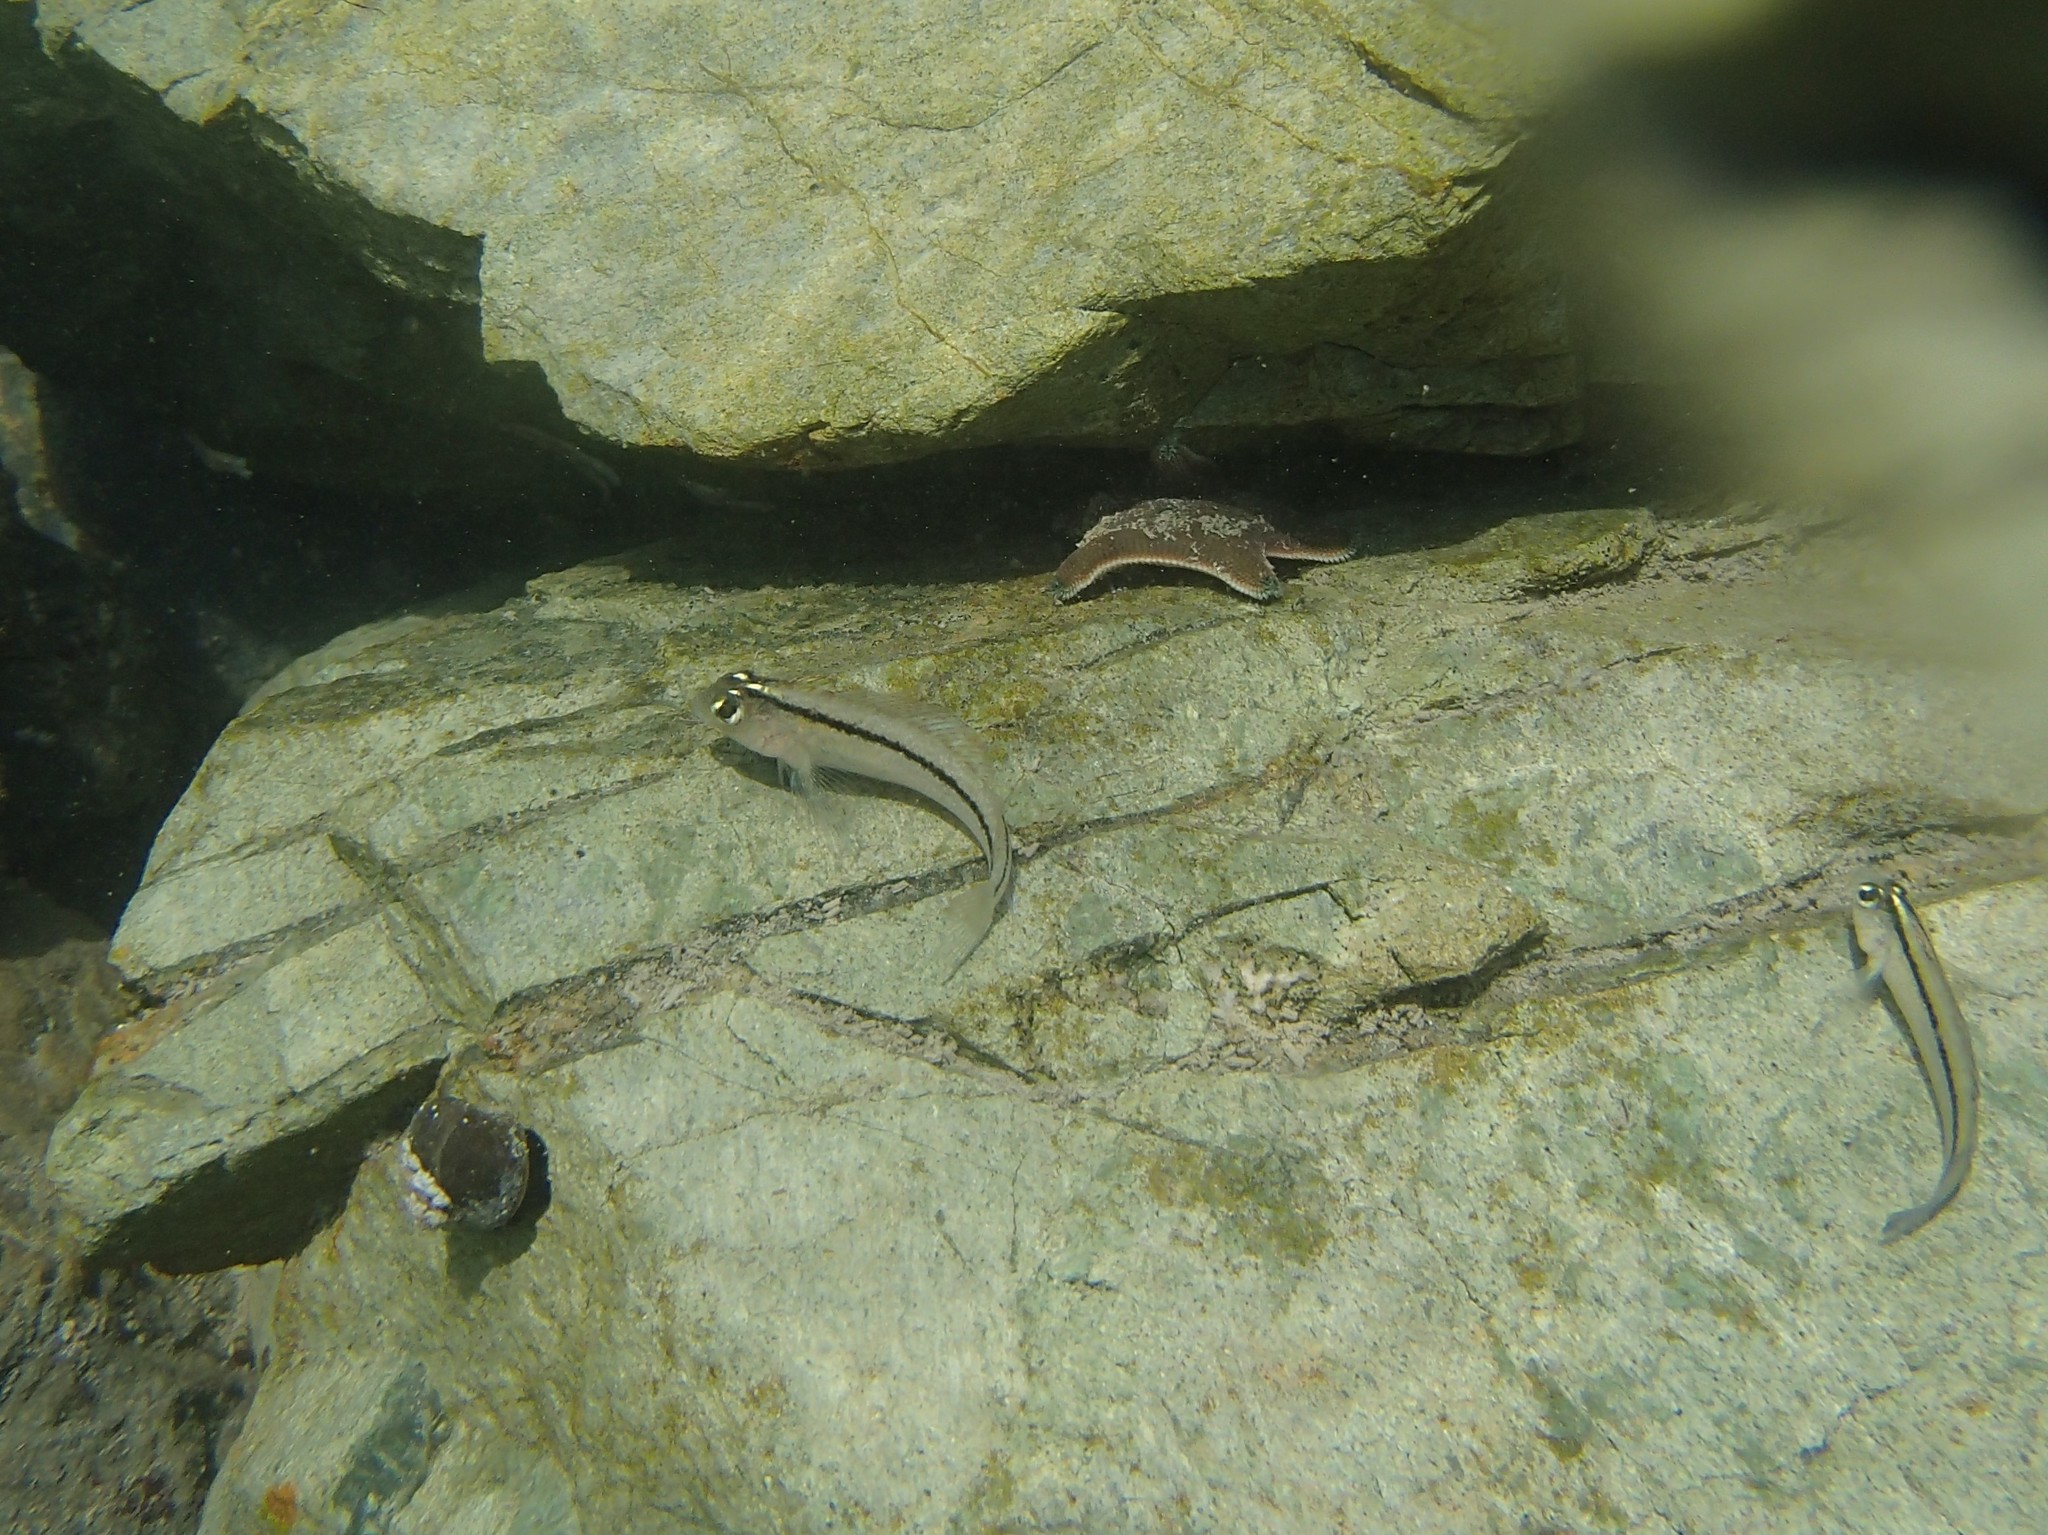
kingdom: Animalia
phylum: Chordata
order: Perciformes
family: Tripterygiidae
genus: Forsterygion
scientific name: Forsterygion lapillum
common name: Common triplefin
